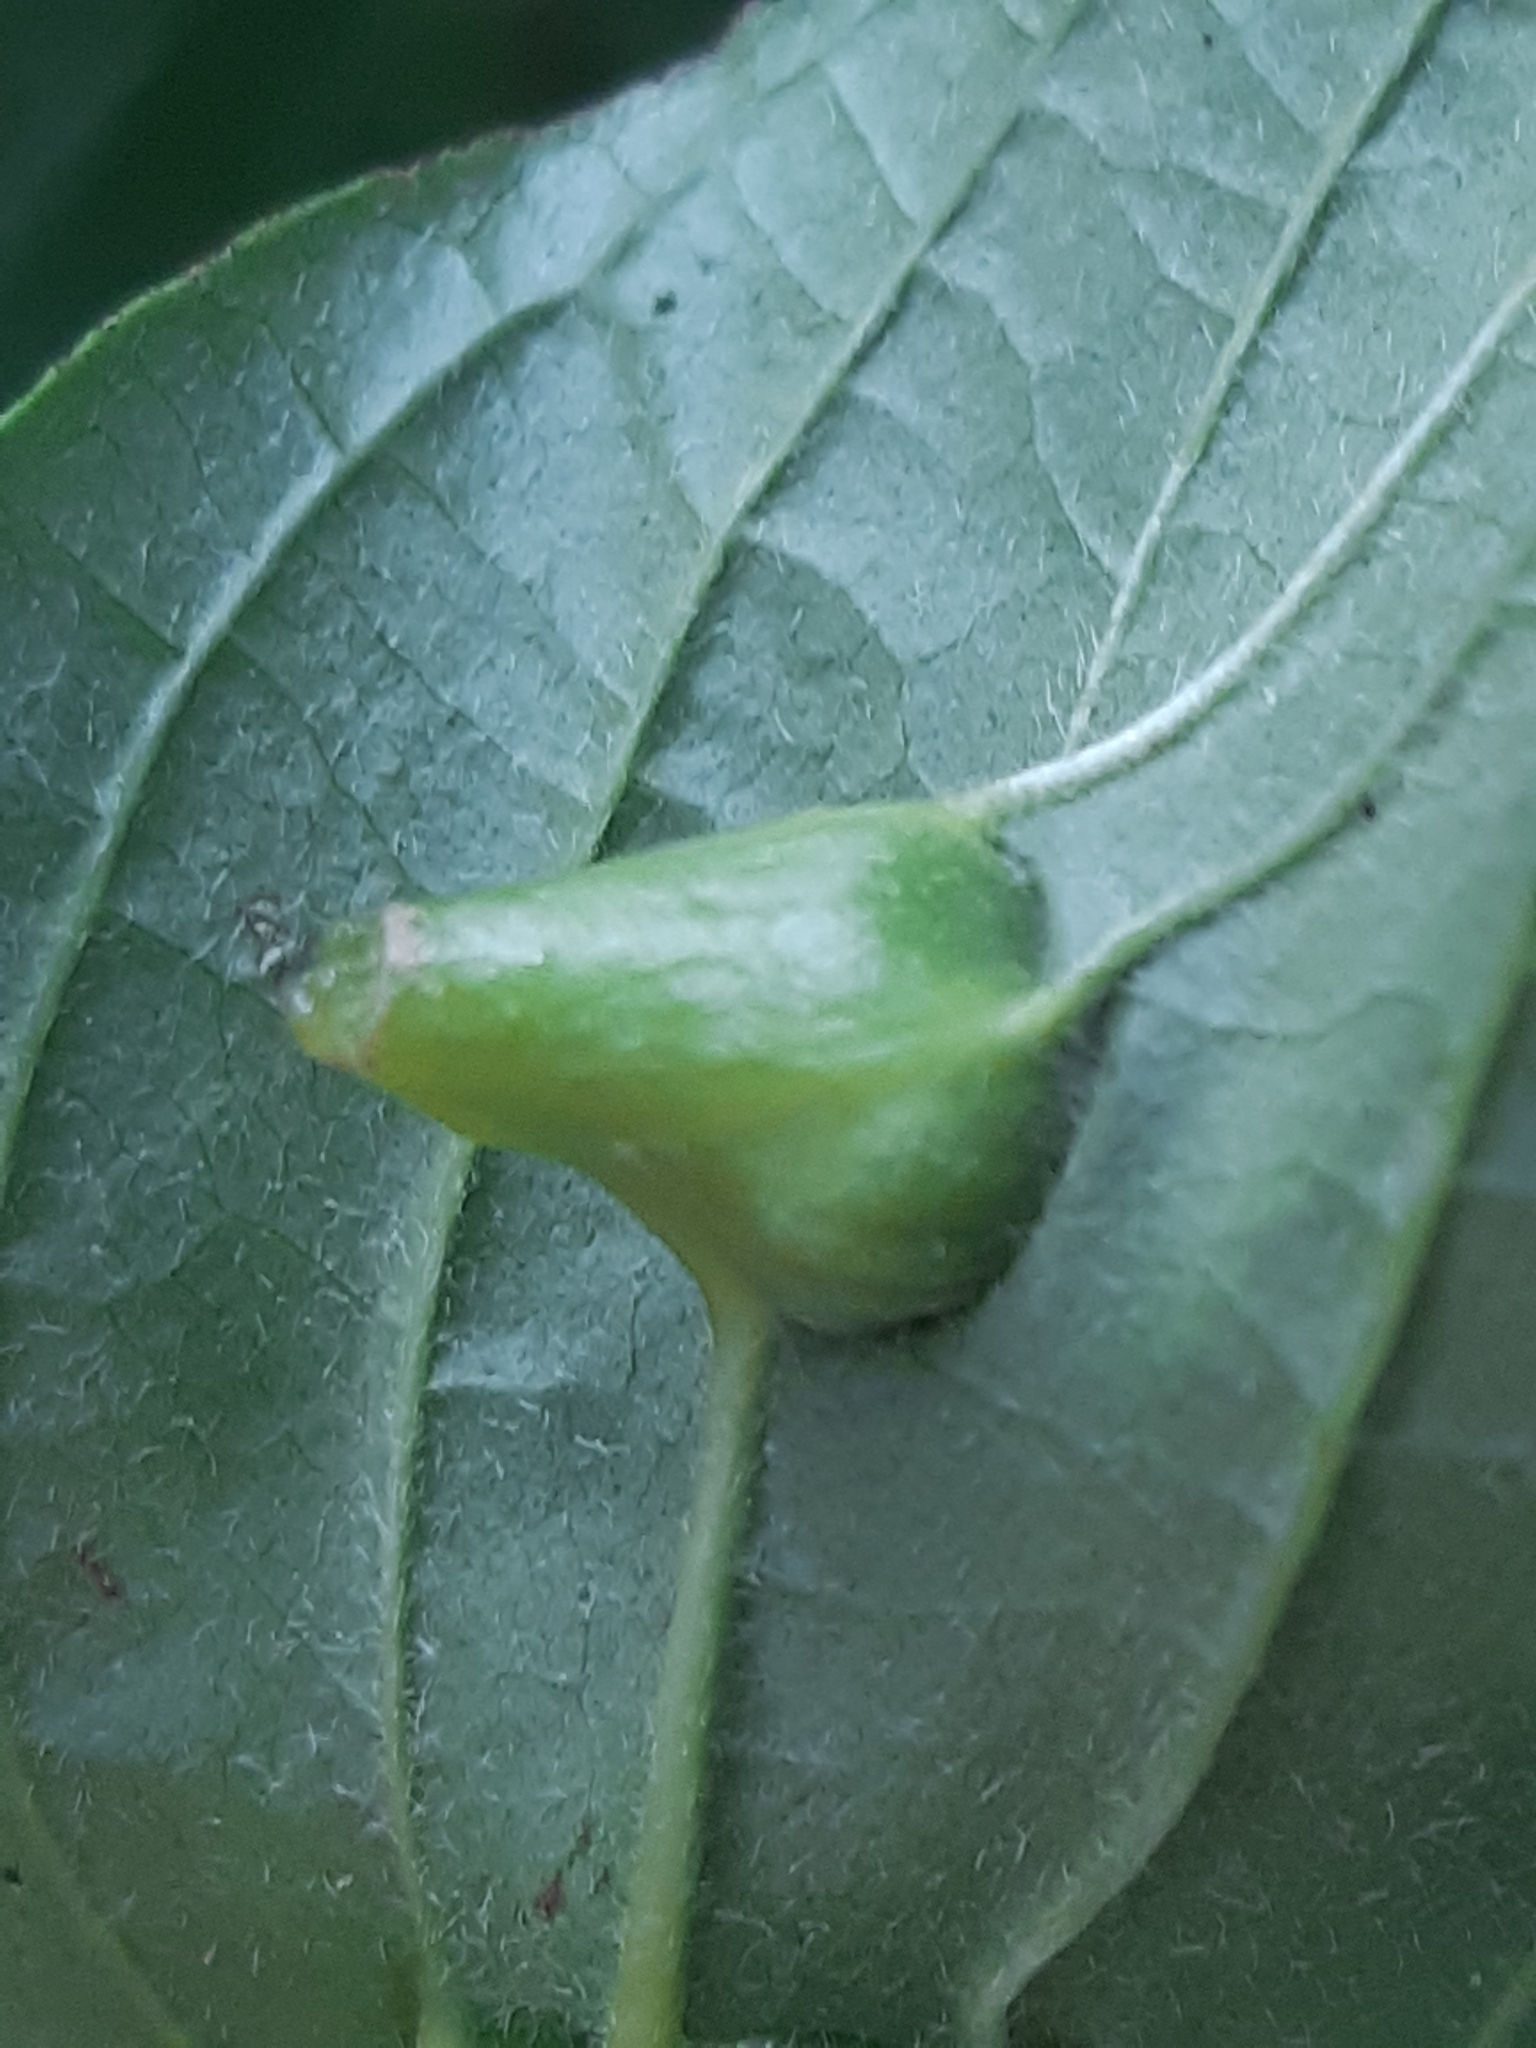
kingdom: Animalia
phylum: Arthropoda
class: Insecta
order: Diptera
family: Cecidomyiidae
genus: Craneiobia
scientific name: Craneiobia corni
